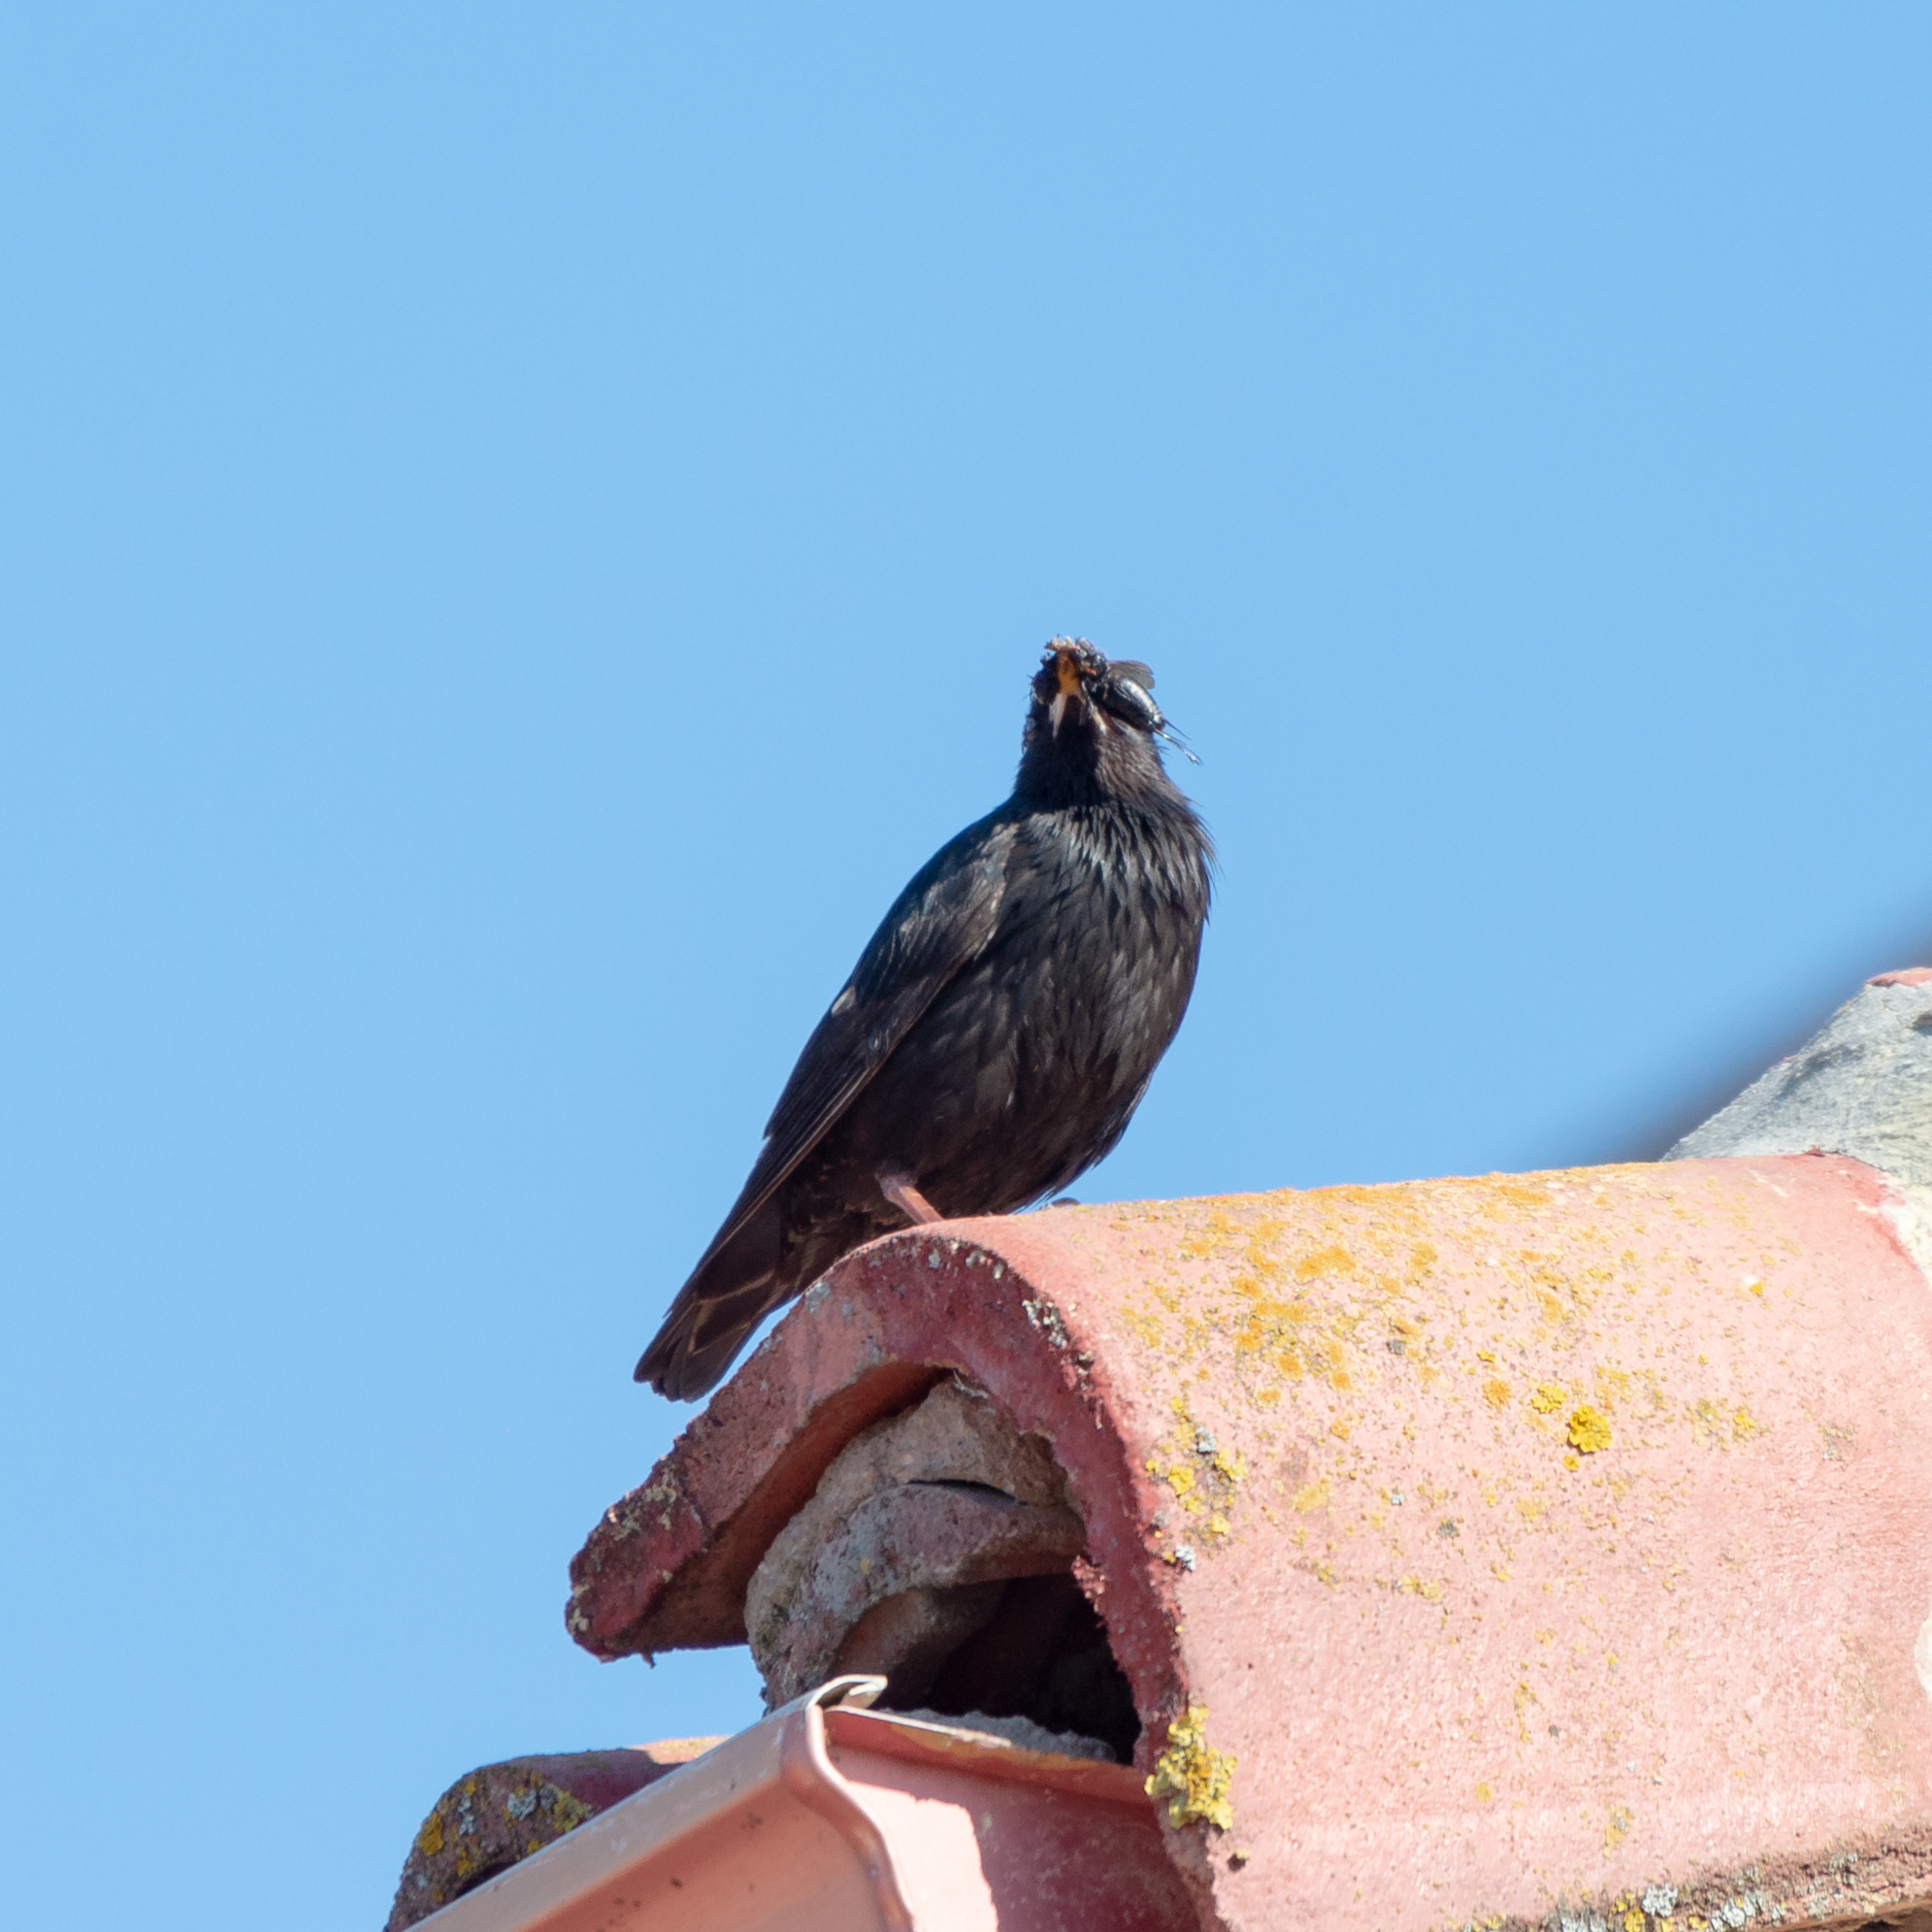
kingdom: Animalia
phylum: Chordata
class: Aves
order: Passeriformes
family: Sturnidae
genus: Sturnus
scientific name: Sturnus unicolor
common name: Spotless starling
